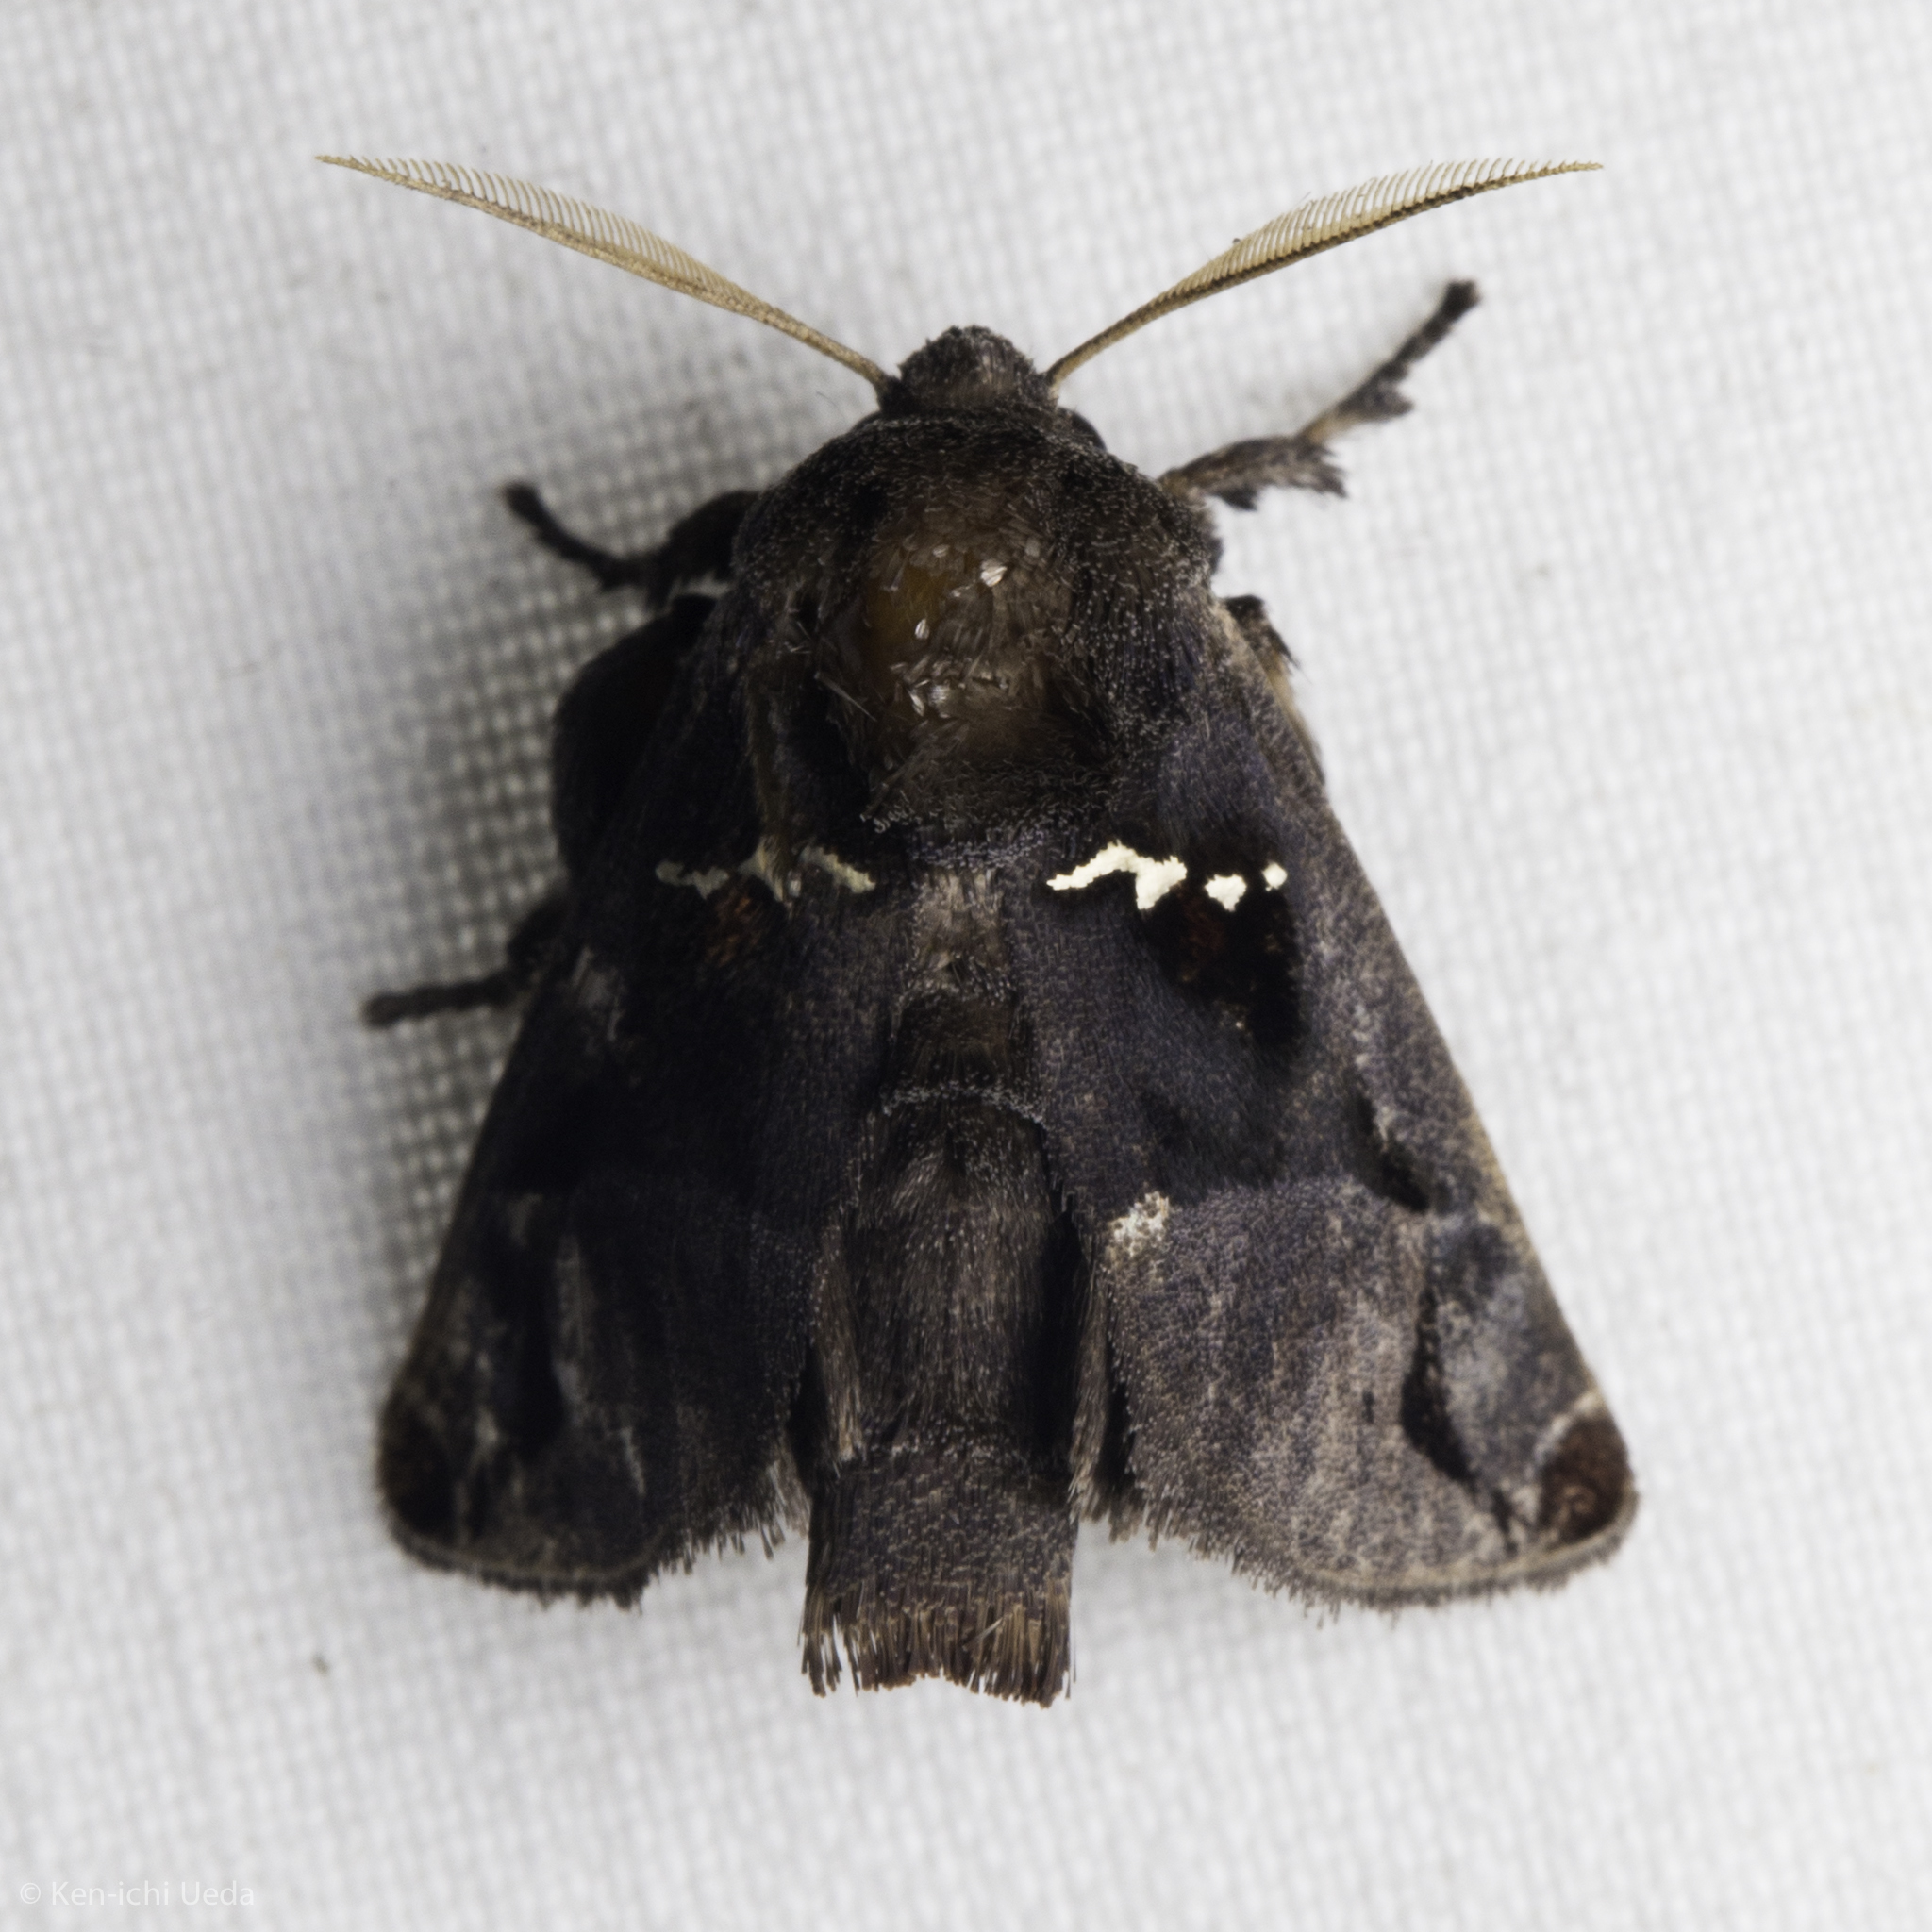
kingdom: Animalia
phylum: Arthropoda
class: Insecta
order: Lepidoptera
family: Limacodidae
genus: Semyra
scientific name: Semyra coarctata
